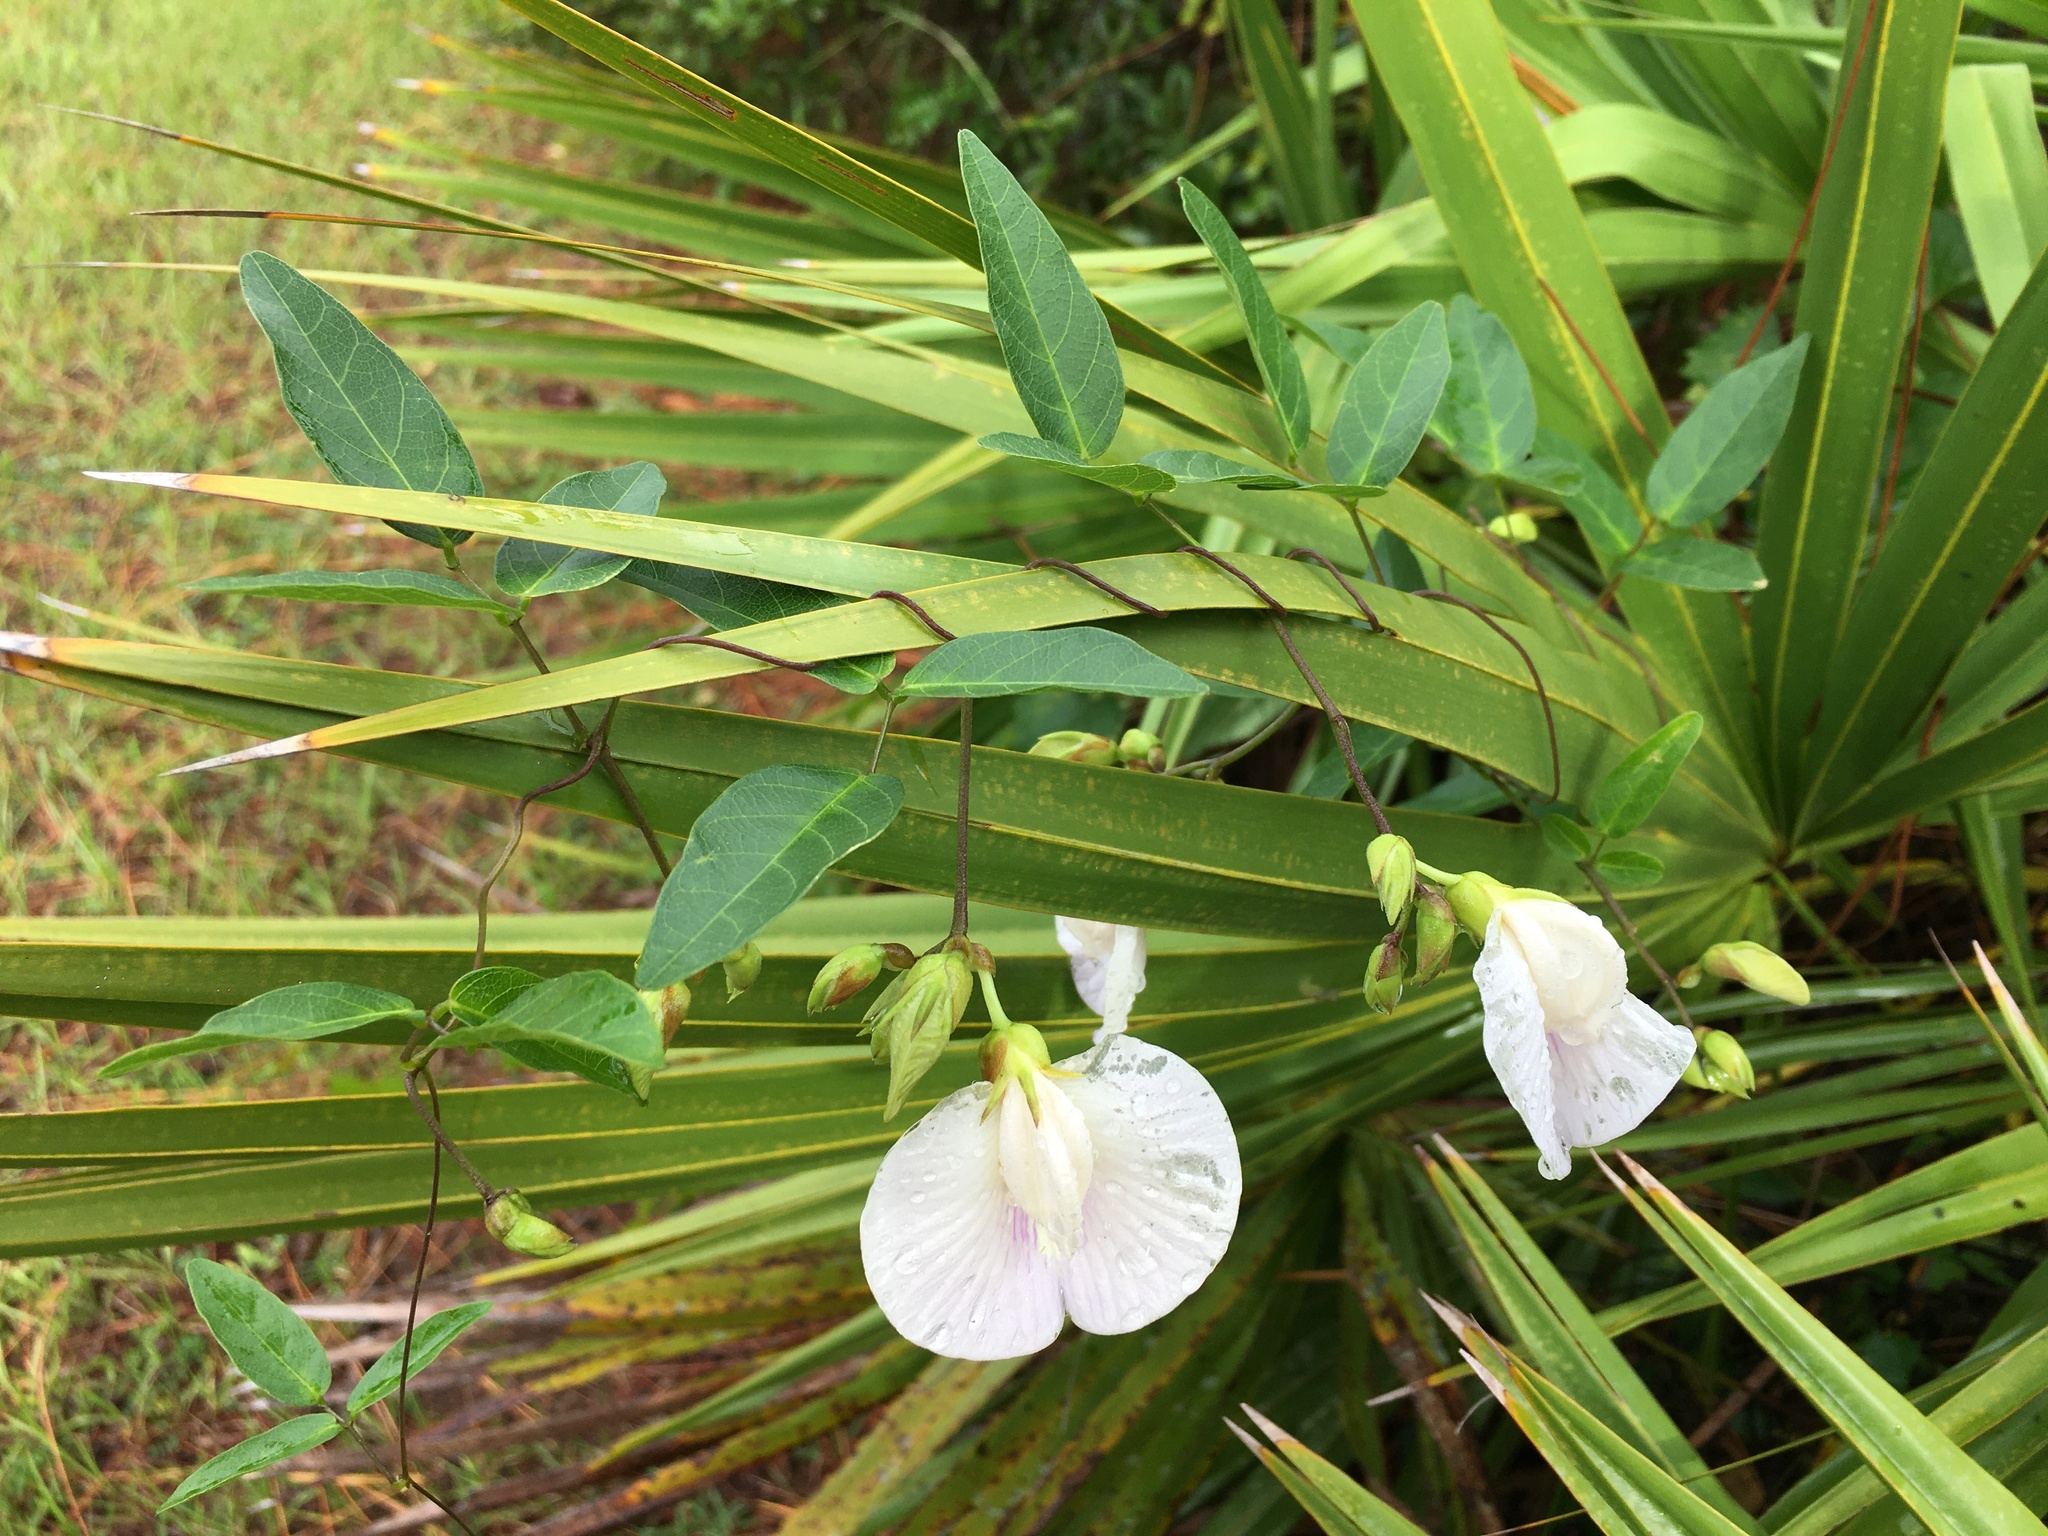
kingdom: Plantae
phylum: Tracheophyta
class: Magnoliopsida
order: Fabales
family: Fabaceae
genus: Centrosema
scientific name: Centrosema arenicola
